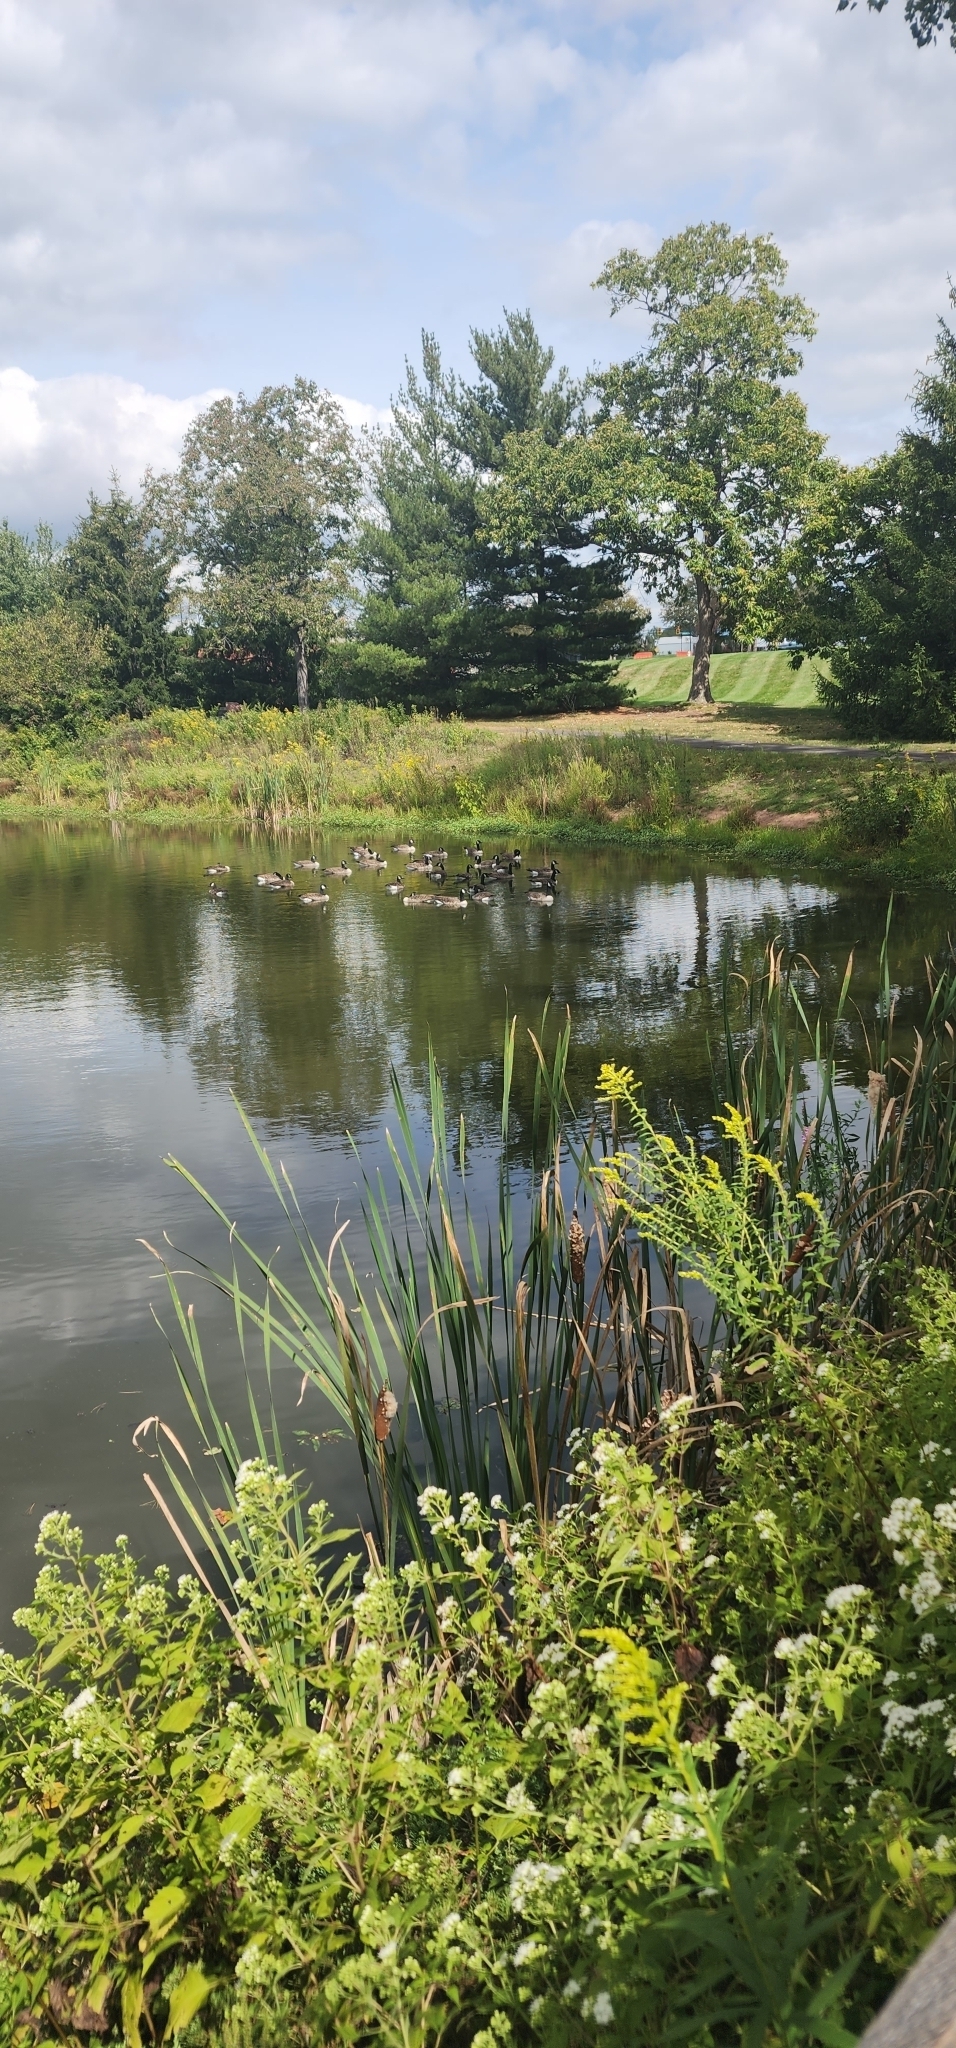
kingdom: Animalia
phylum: Chordata
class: Aves
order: Anseriformes
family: Anatidae
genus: Branta
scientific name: Branta canadensis
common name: Canada goose
